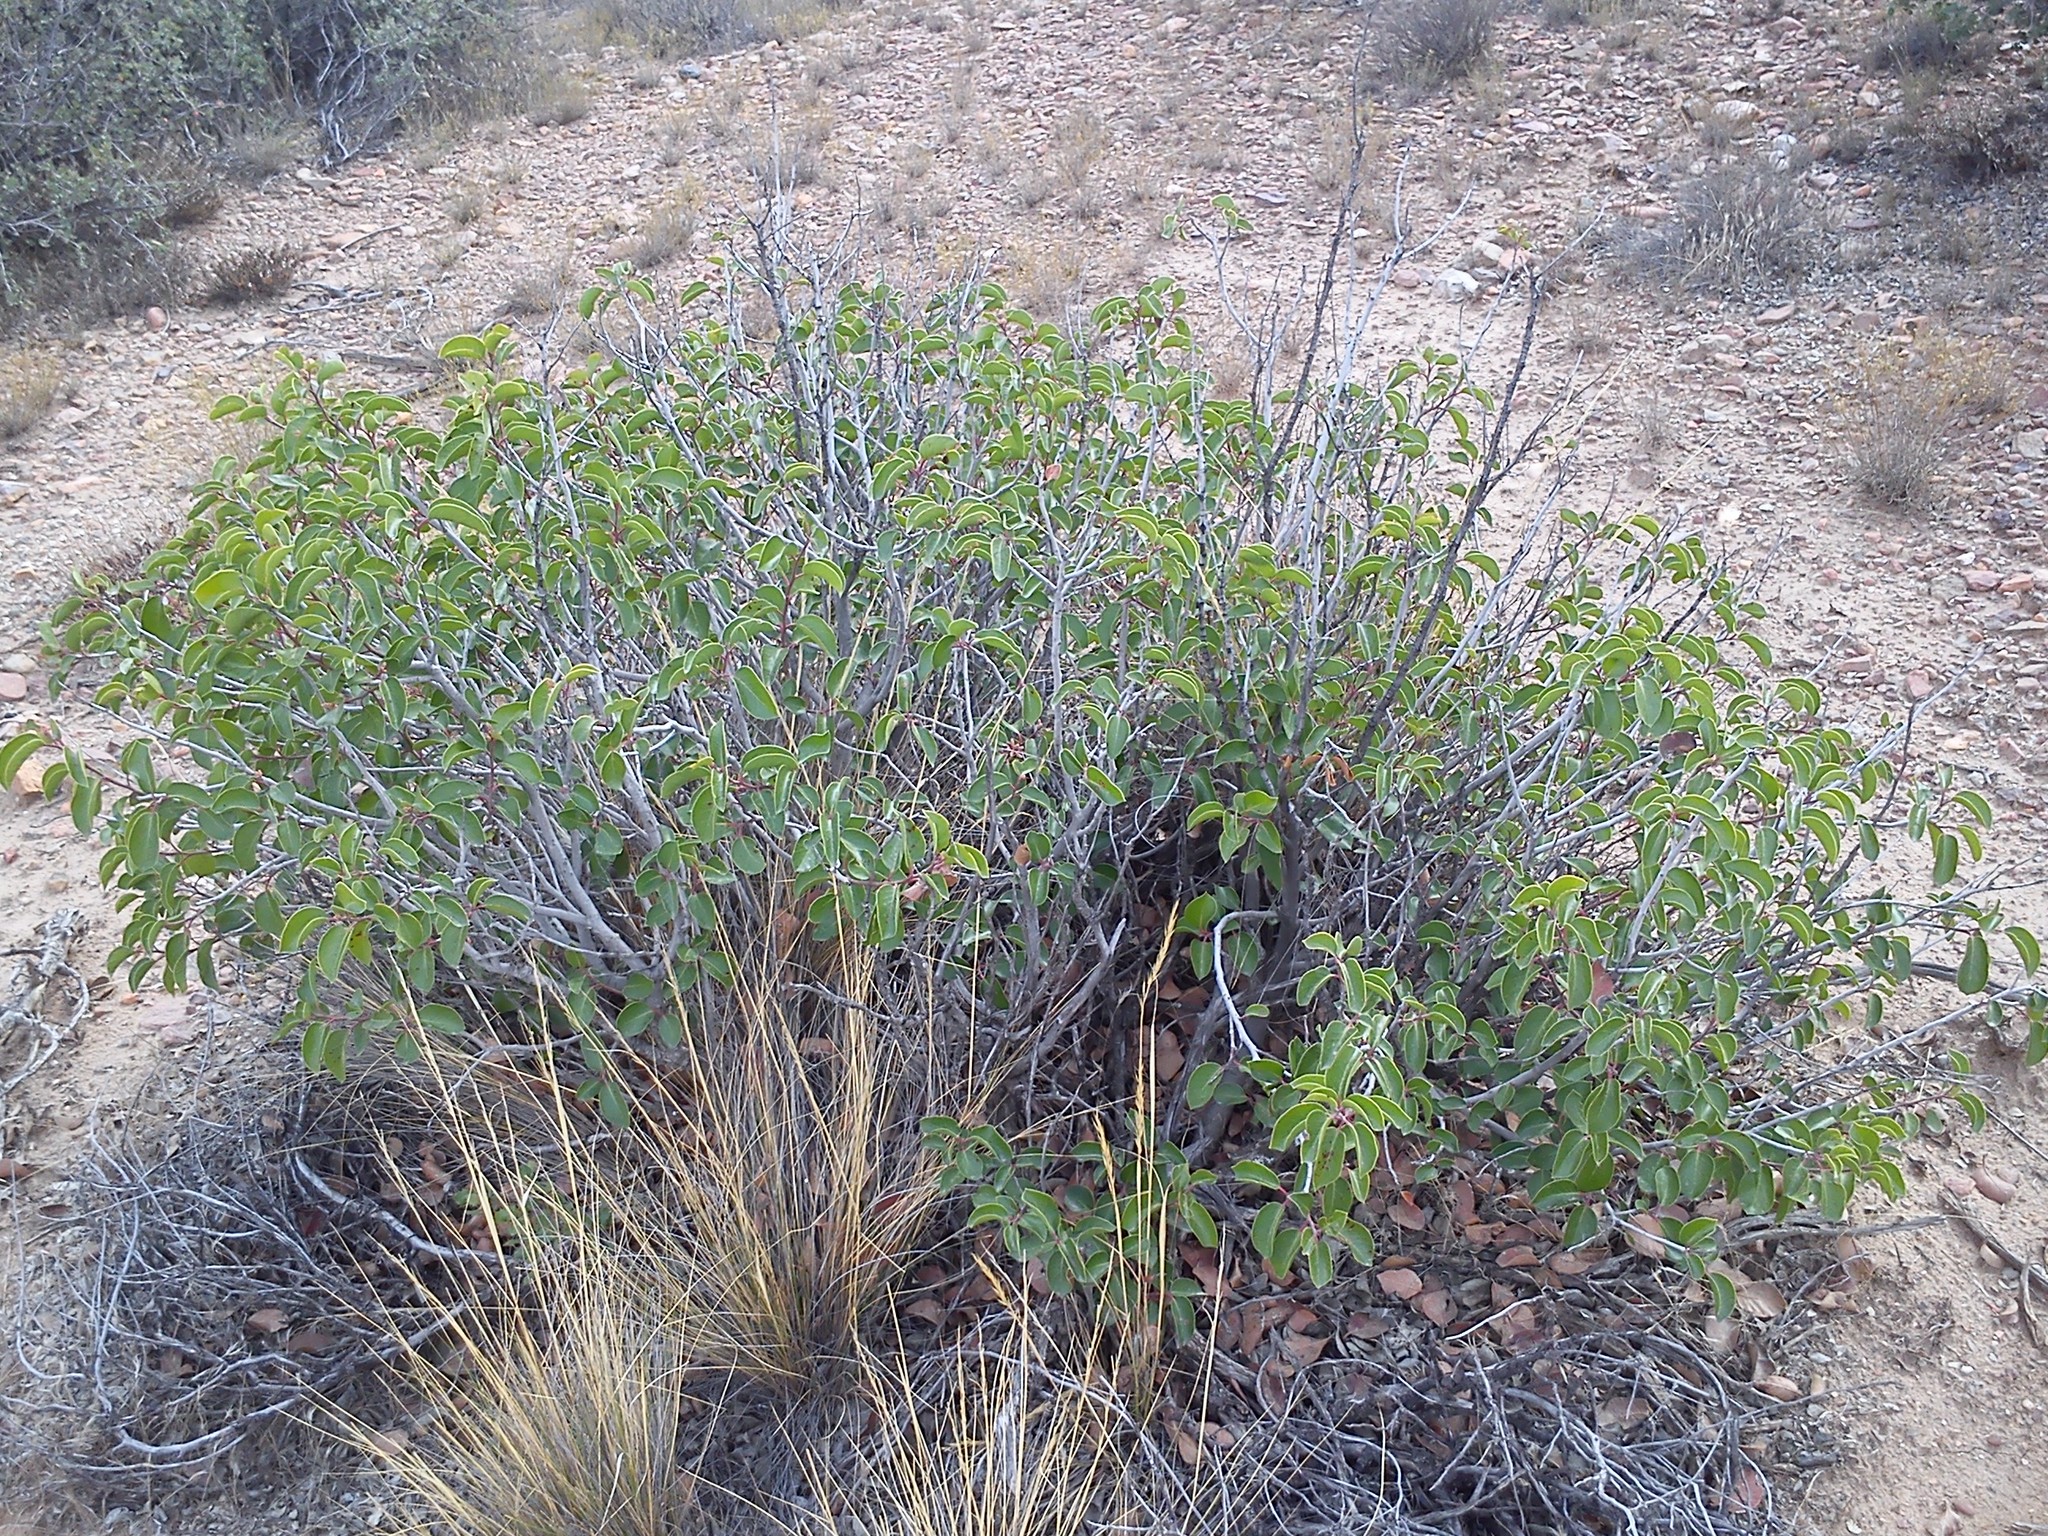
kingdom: Plantae
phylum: Tracheophyta
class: Magnoliopsida
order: Sapindales
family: Anacardiaceae
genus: Rhus
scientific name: Rhus ovata
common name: Sugar sumac
